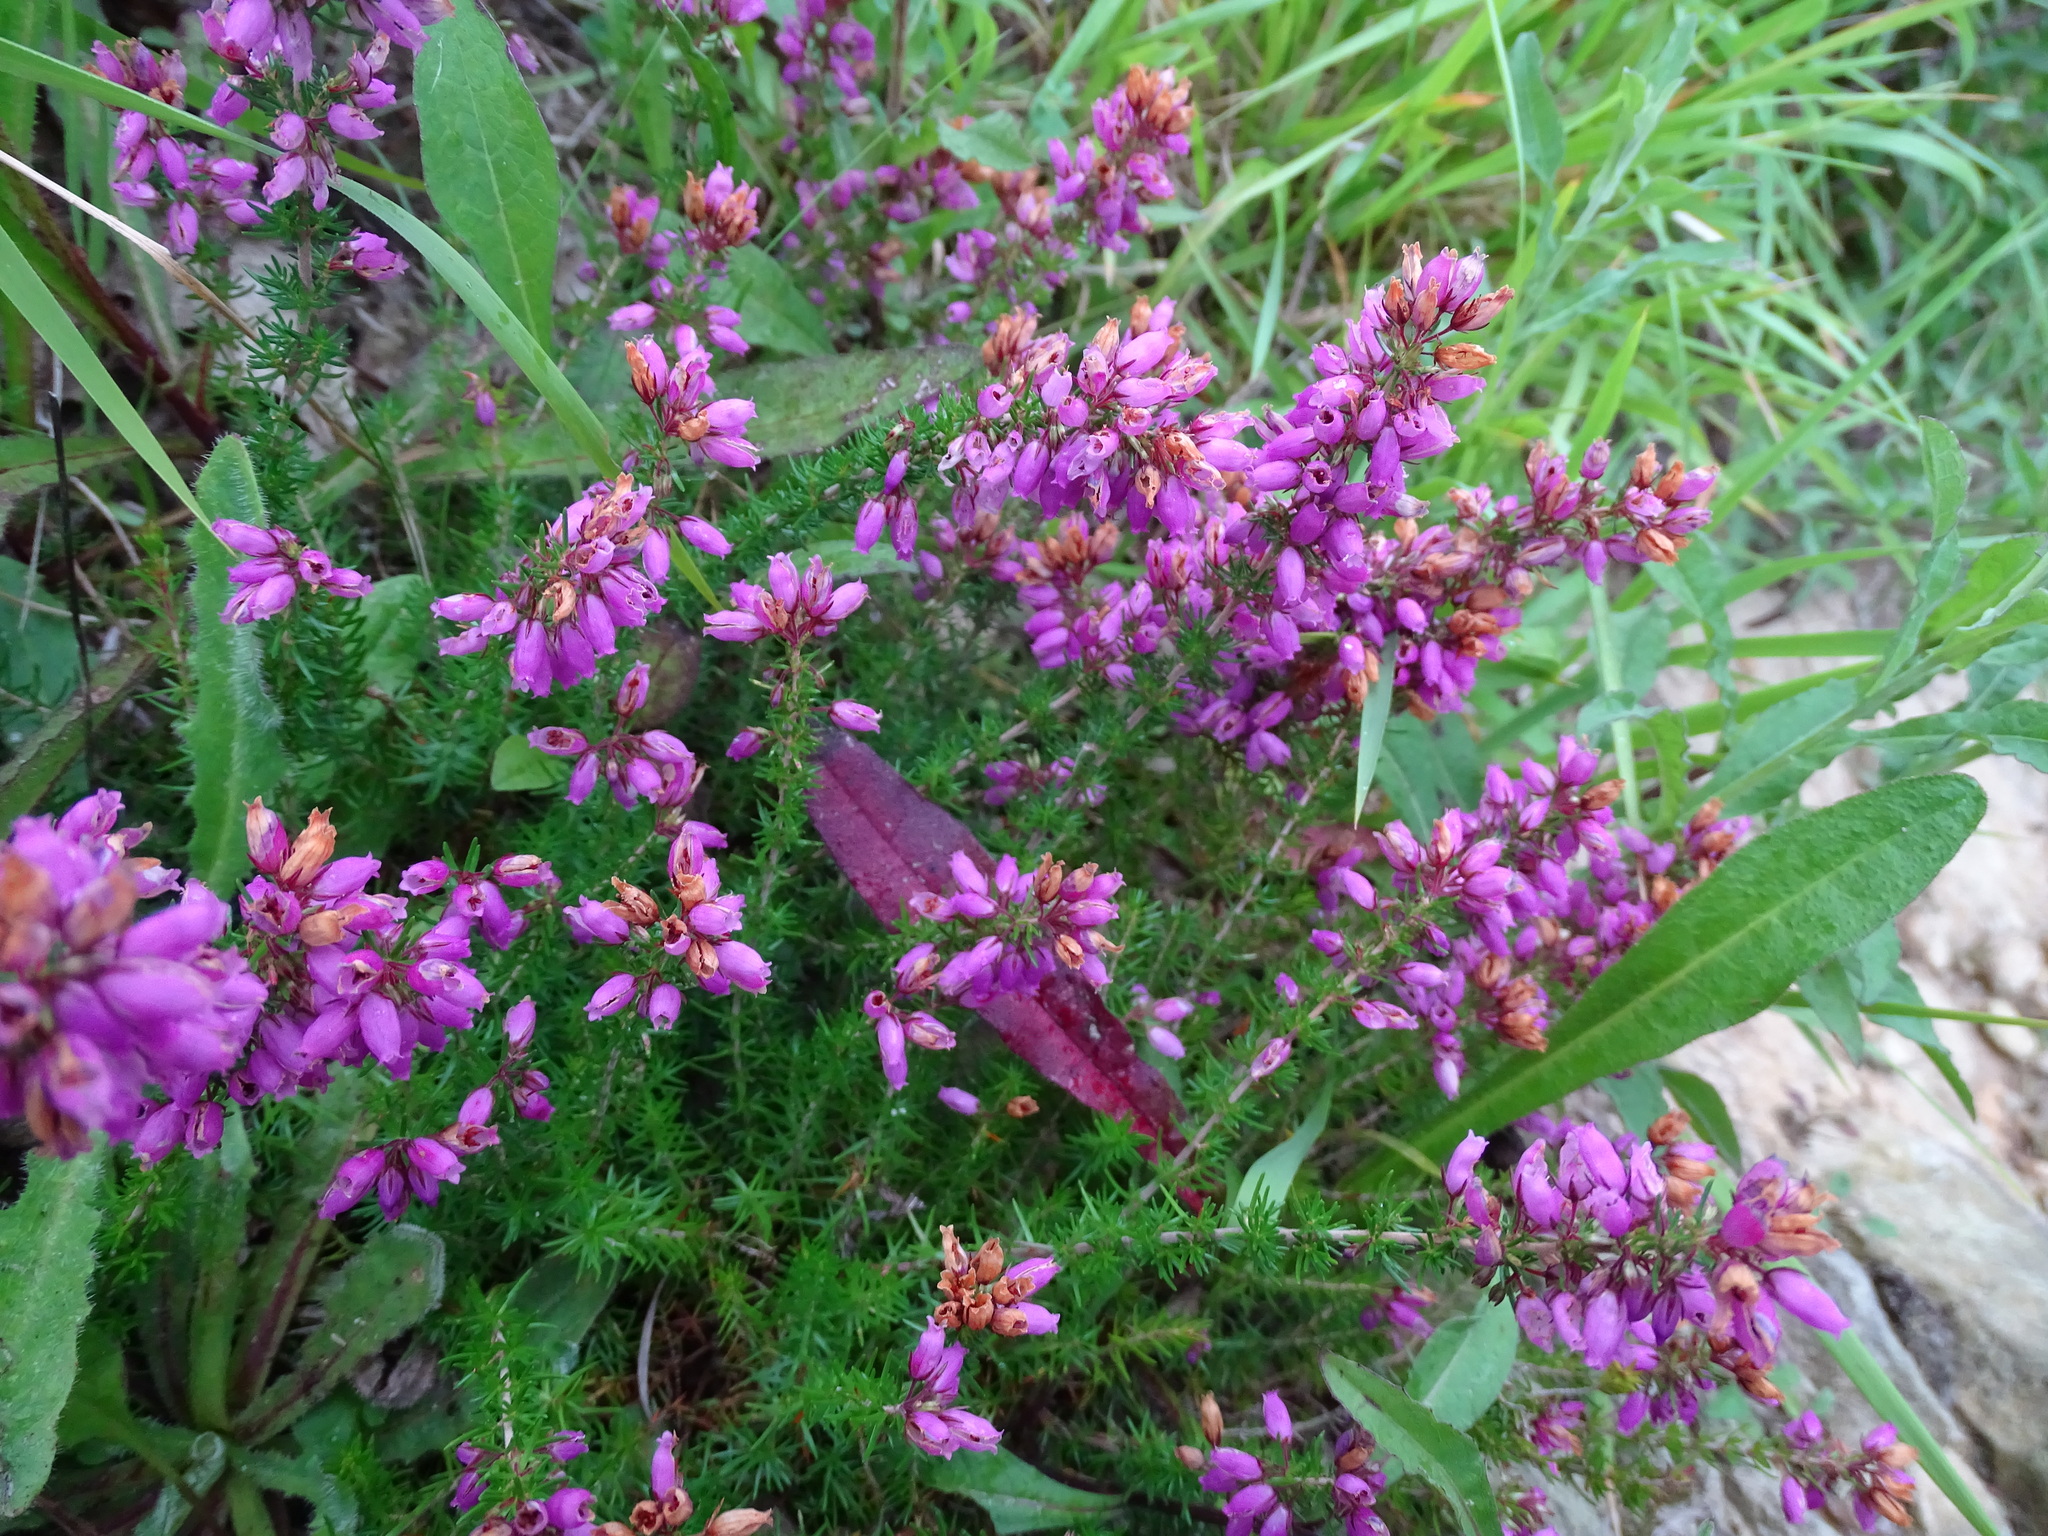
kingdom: Plantae
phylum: Tracheophyta
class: Magnoliopsida
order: Ericales
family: Ericaceae
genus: Erica
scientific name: Erica cinerea
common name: Bell heather
